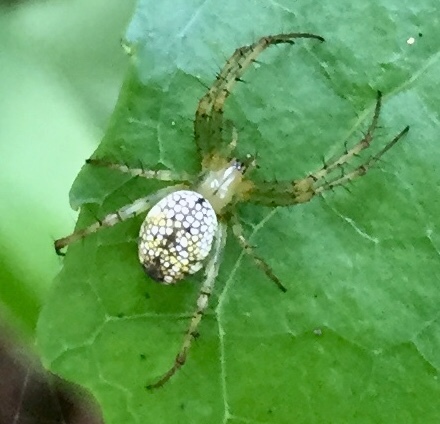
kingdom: Animalia
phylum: Arthropoda
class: Arachnida
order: Araneae
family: Araneidae
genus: Mangora
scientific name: Mangora maculata
